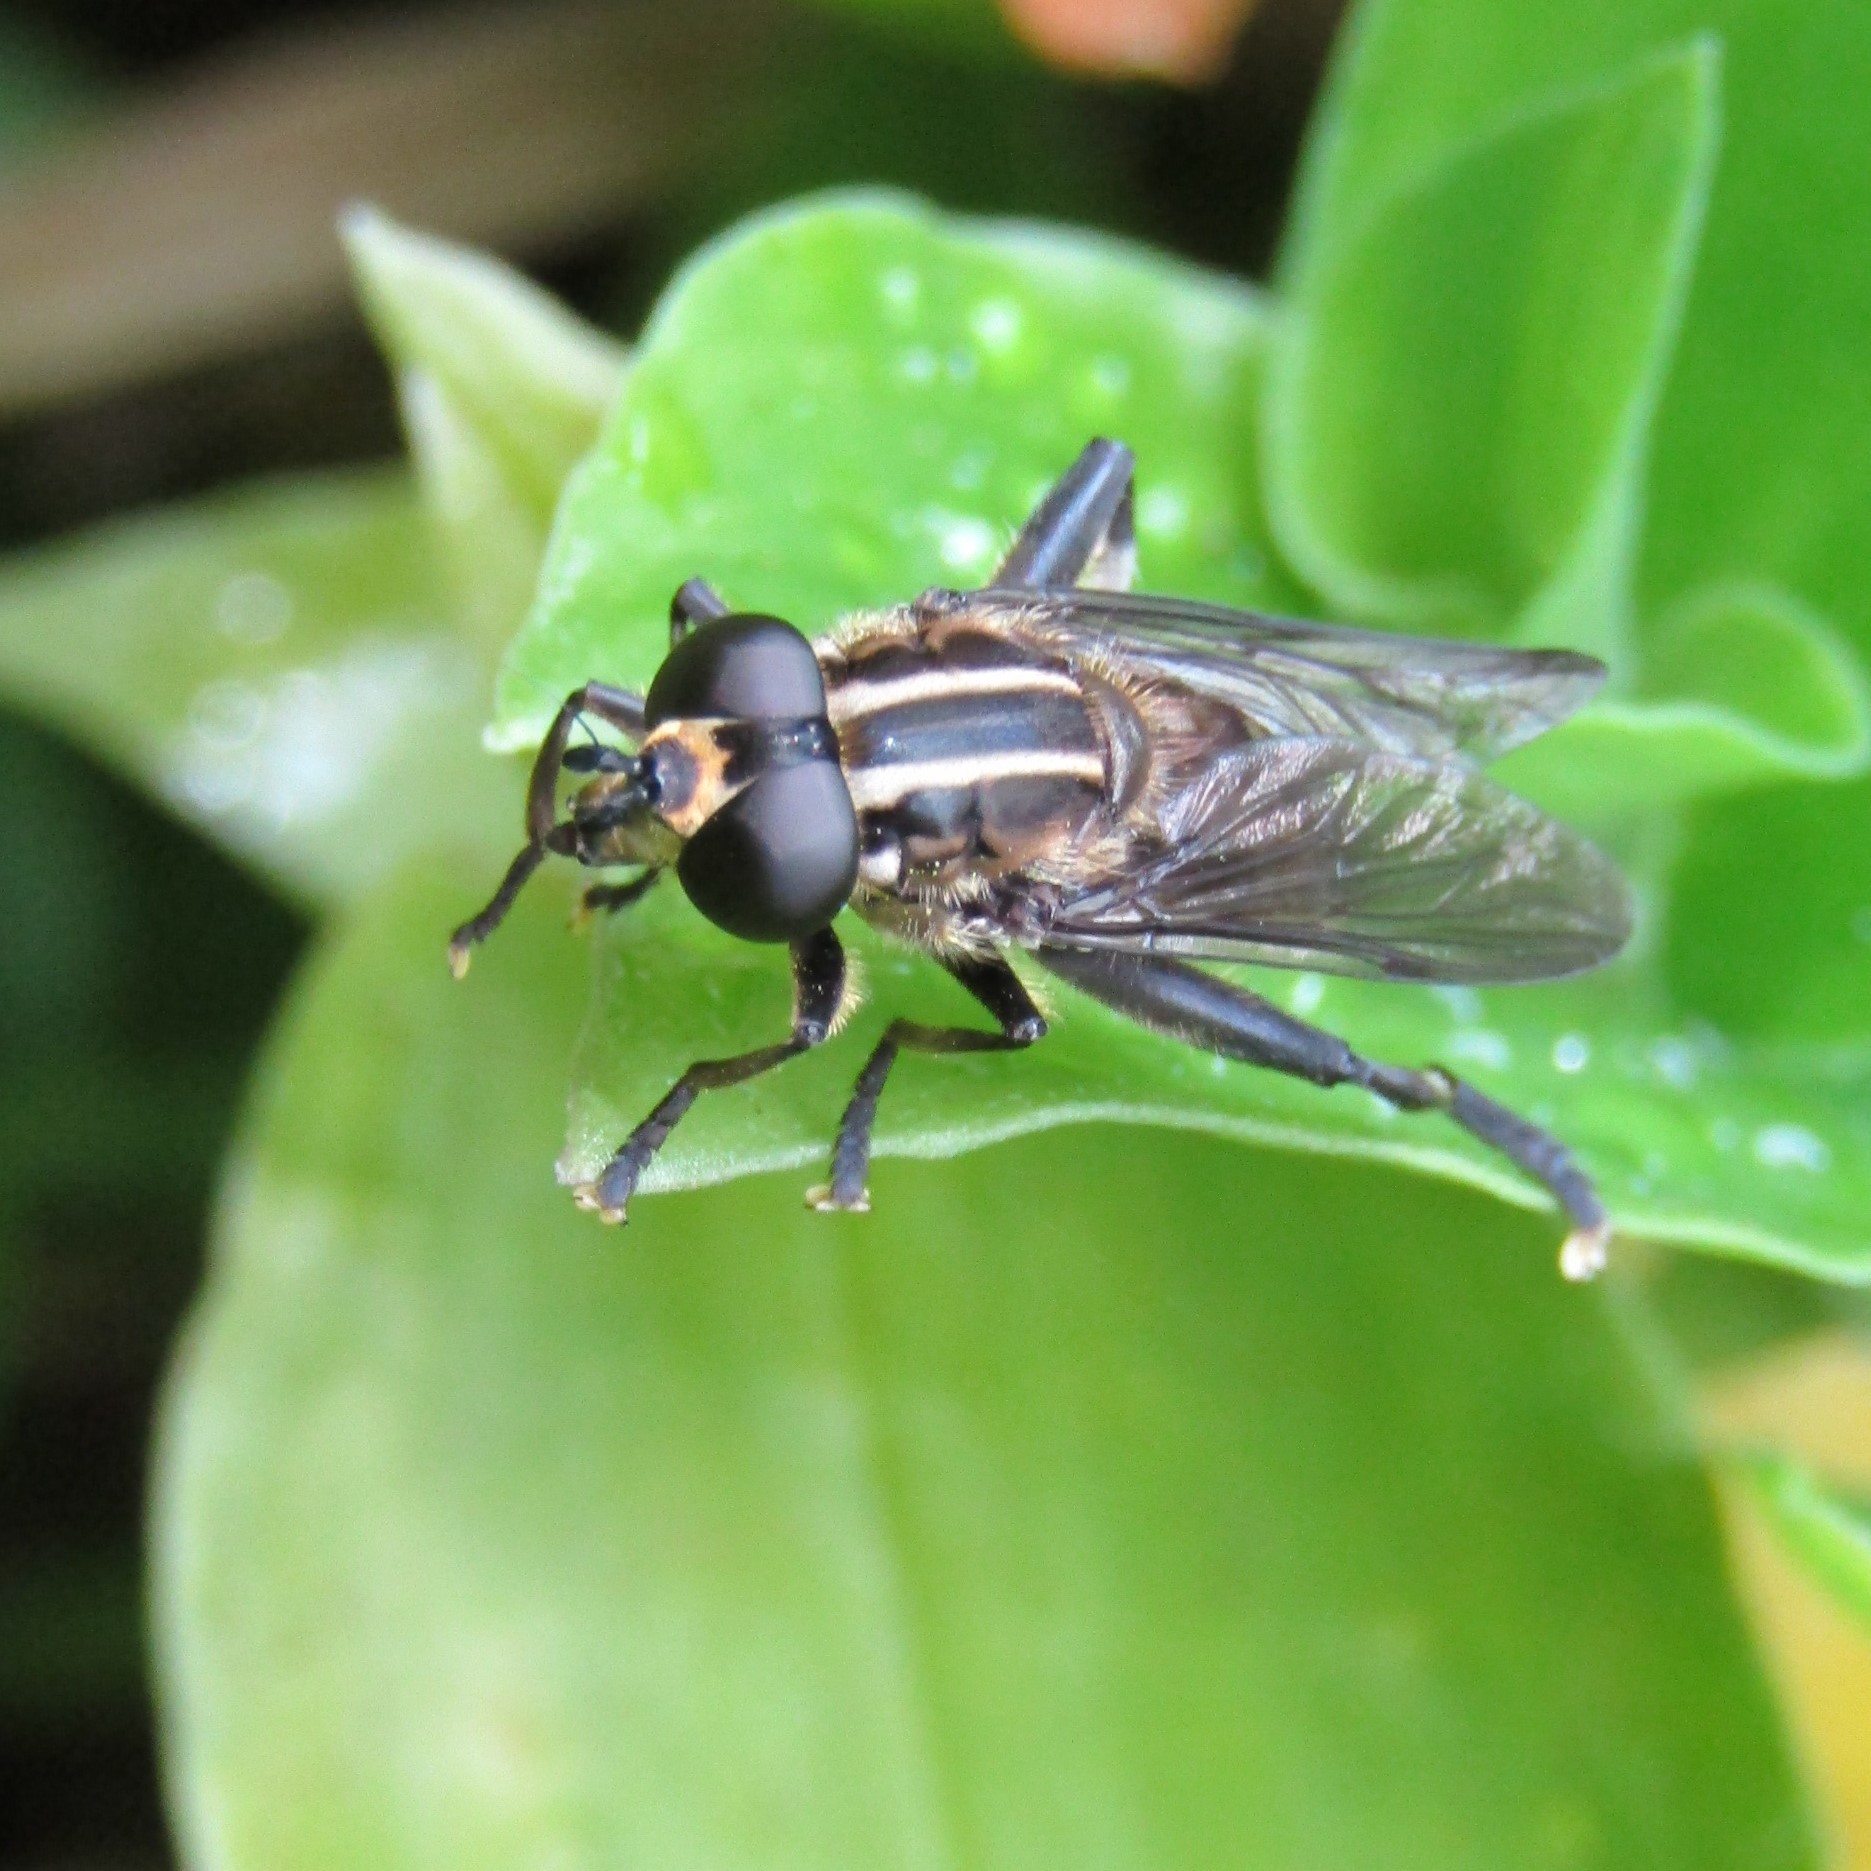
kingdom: Animalia
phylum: Arthropoda
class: Insecta
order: Diptera
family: Syrphidae
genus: Orthoprosopa
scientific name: Orthoprosopa bilineata
